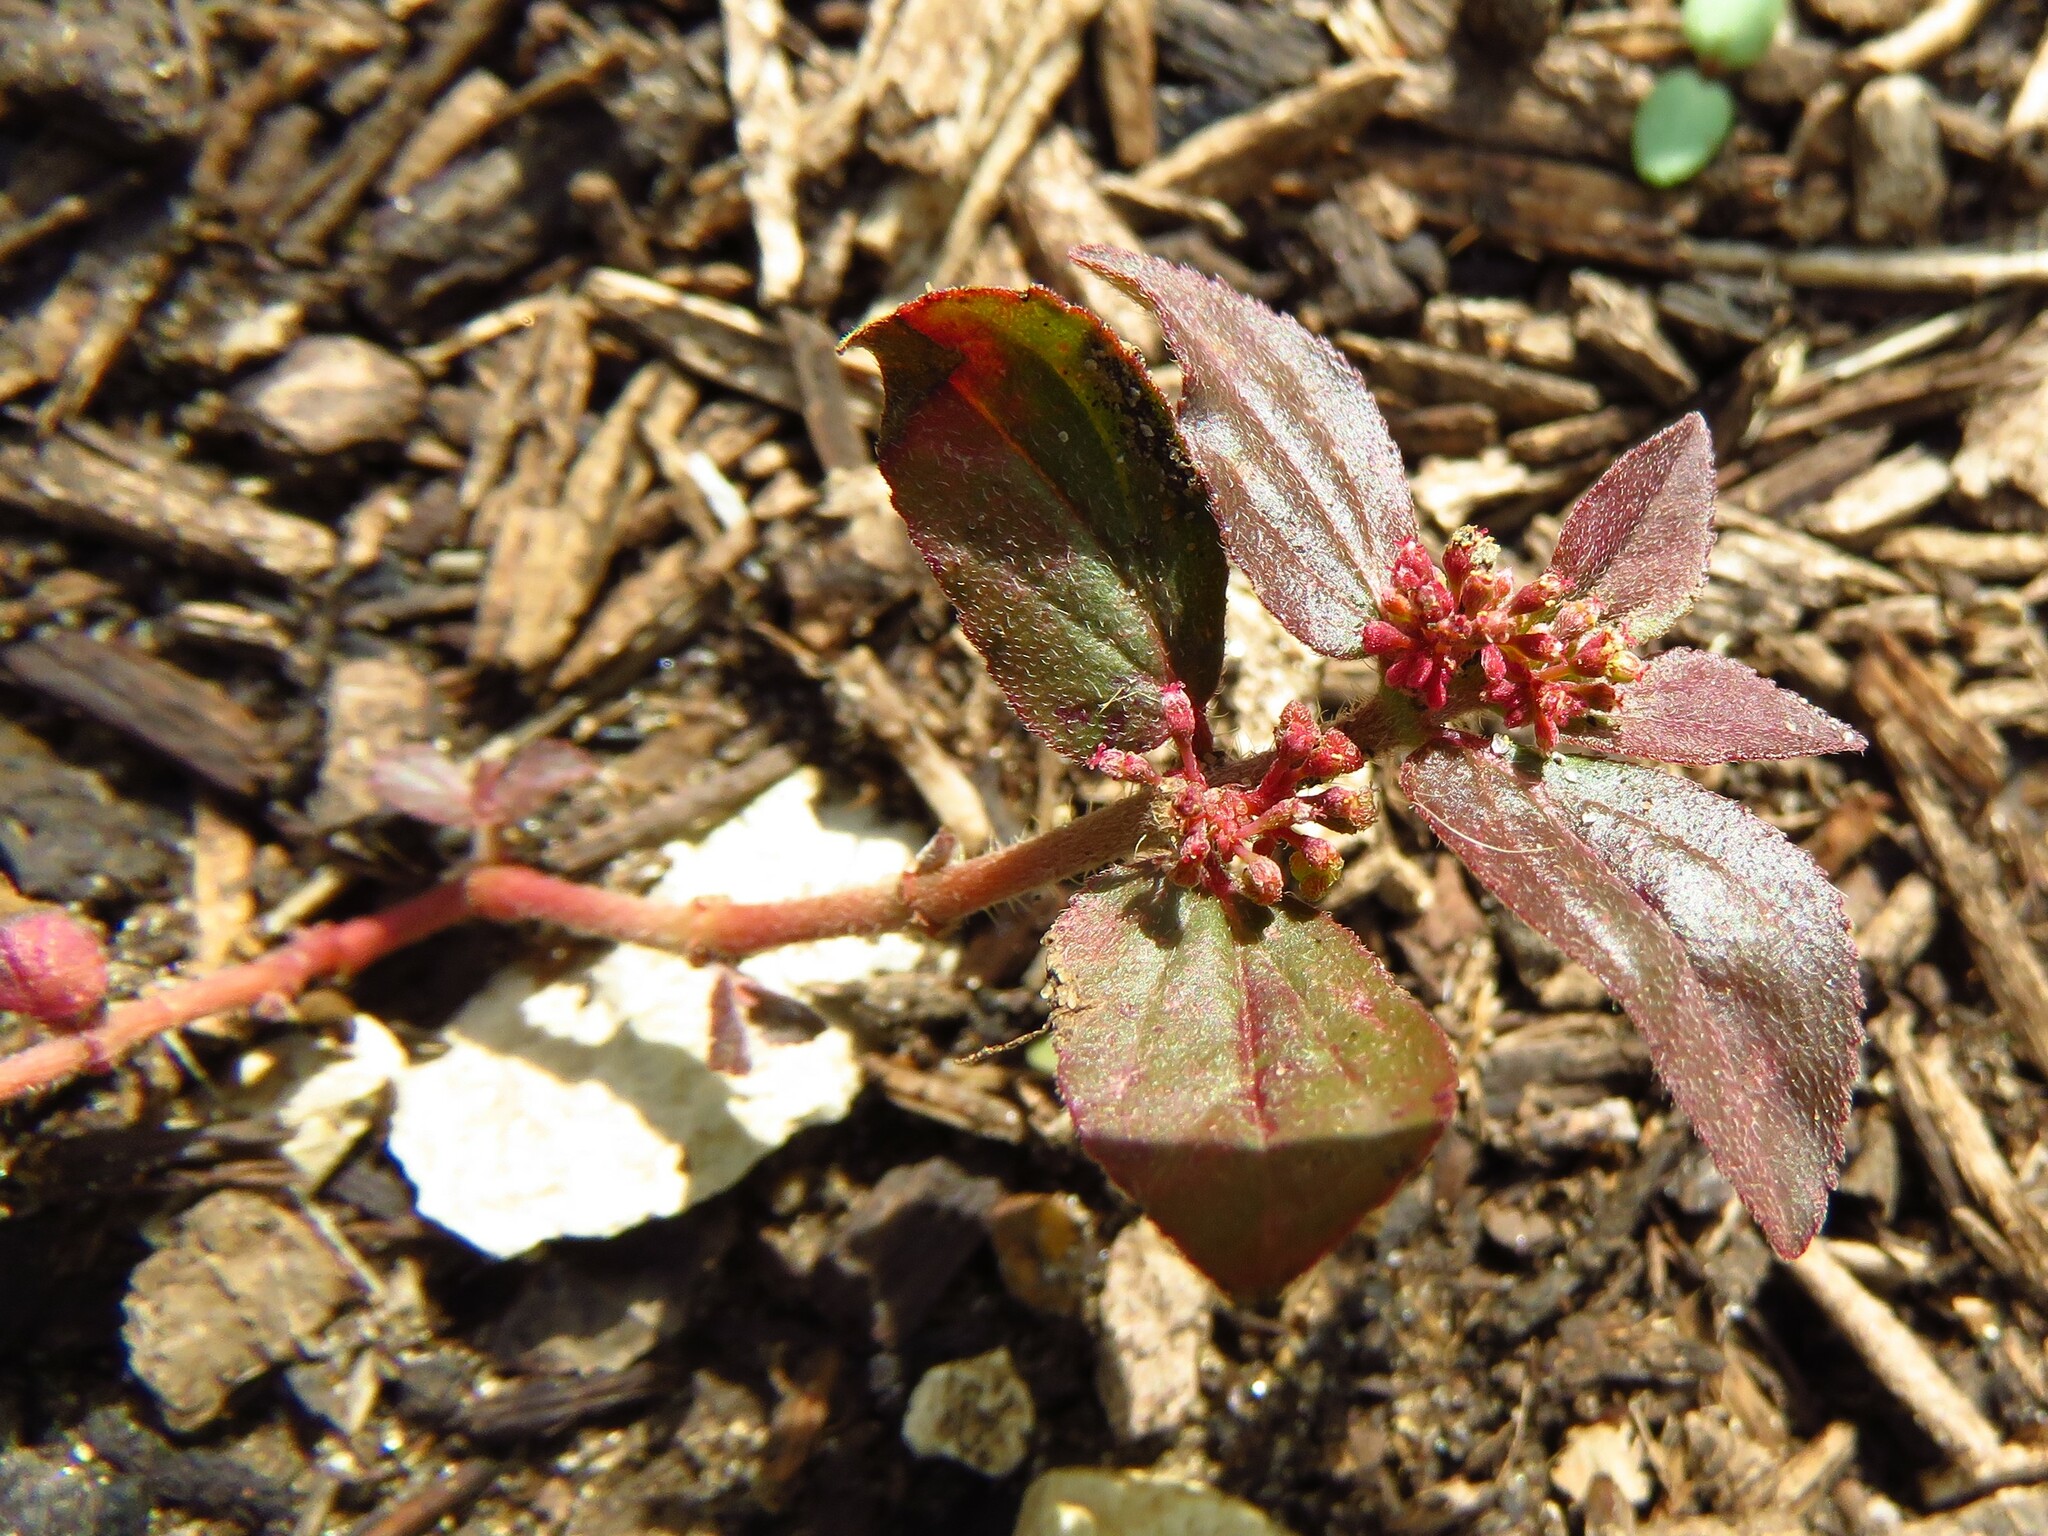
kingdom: Plantae
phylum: Tracheophyta
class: Magnoliopsida
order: Malpighiales
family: Euphorbiaceae
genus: Euphorbia
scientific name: Euphorbia hirta
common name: Pillpod sandmat
